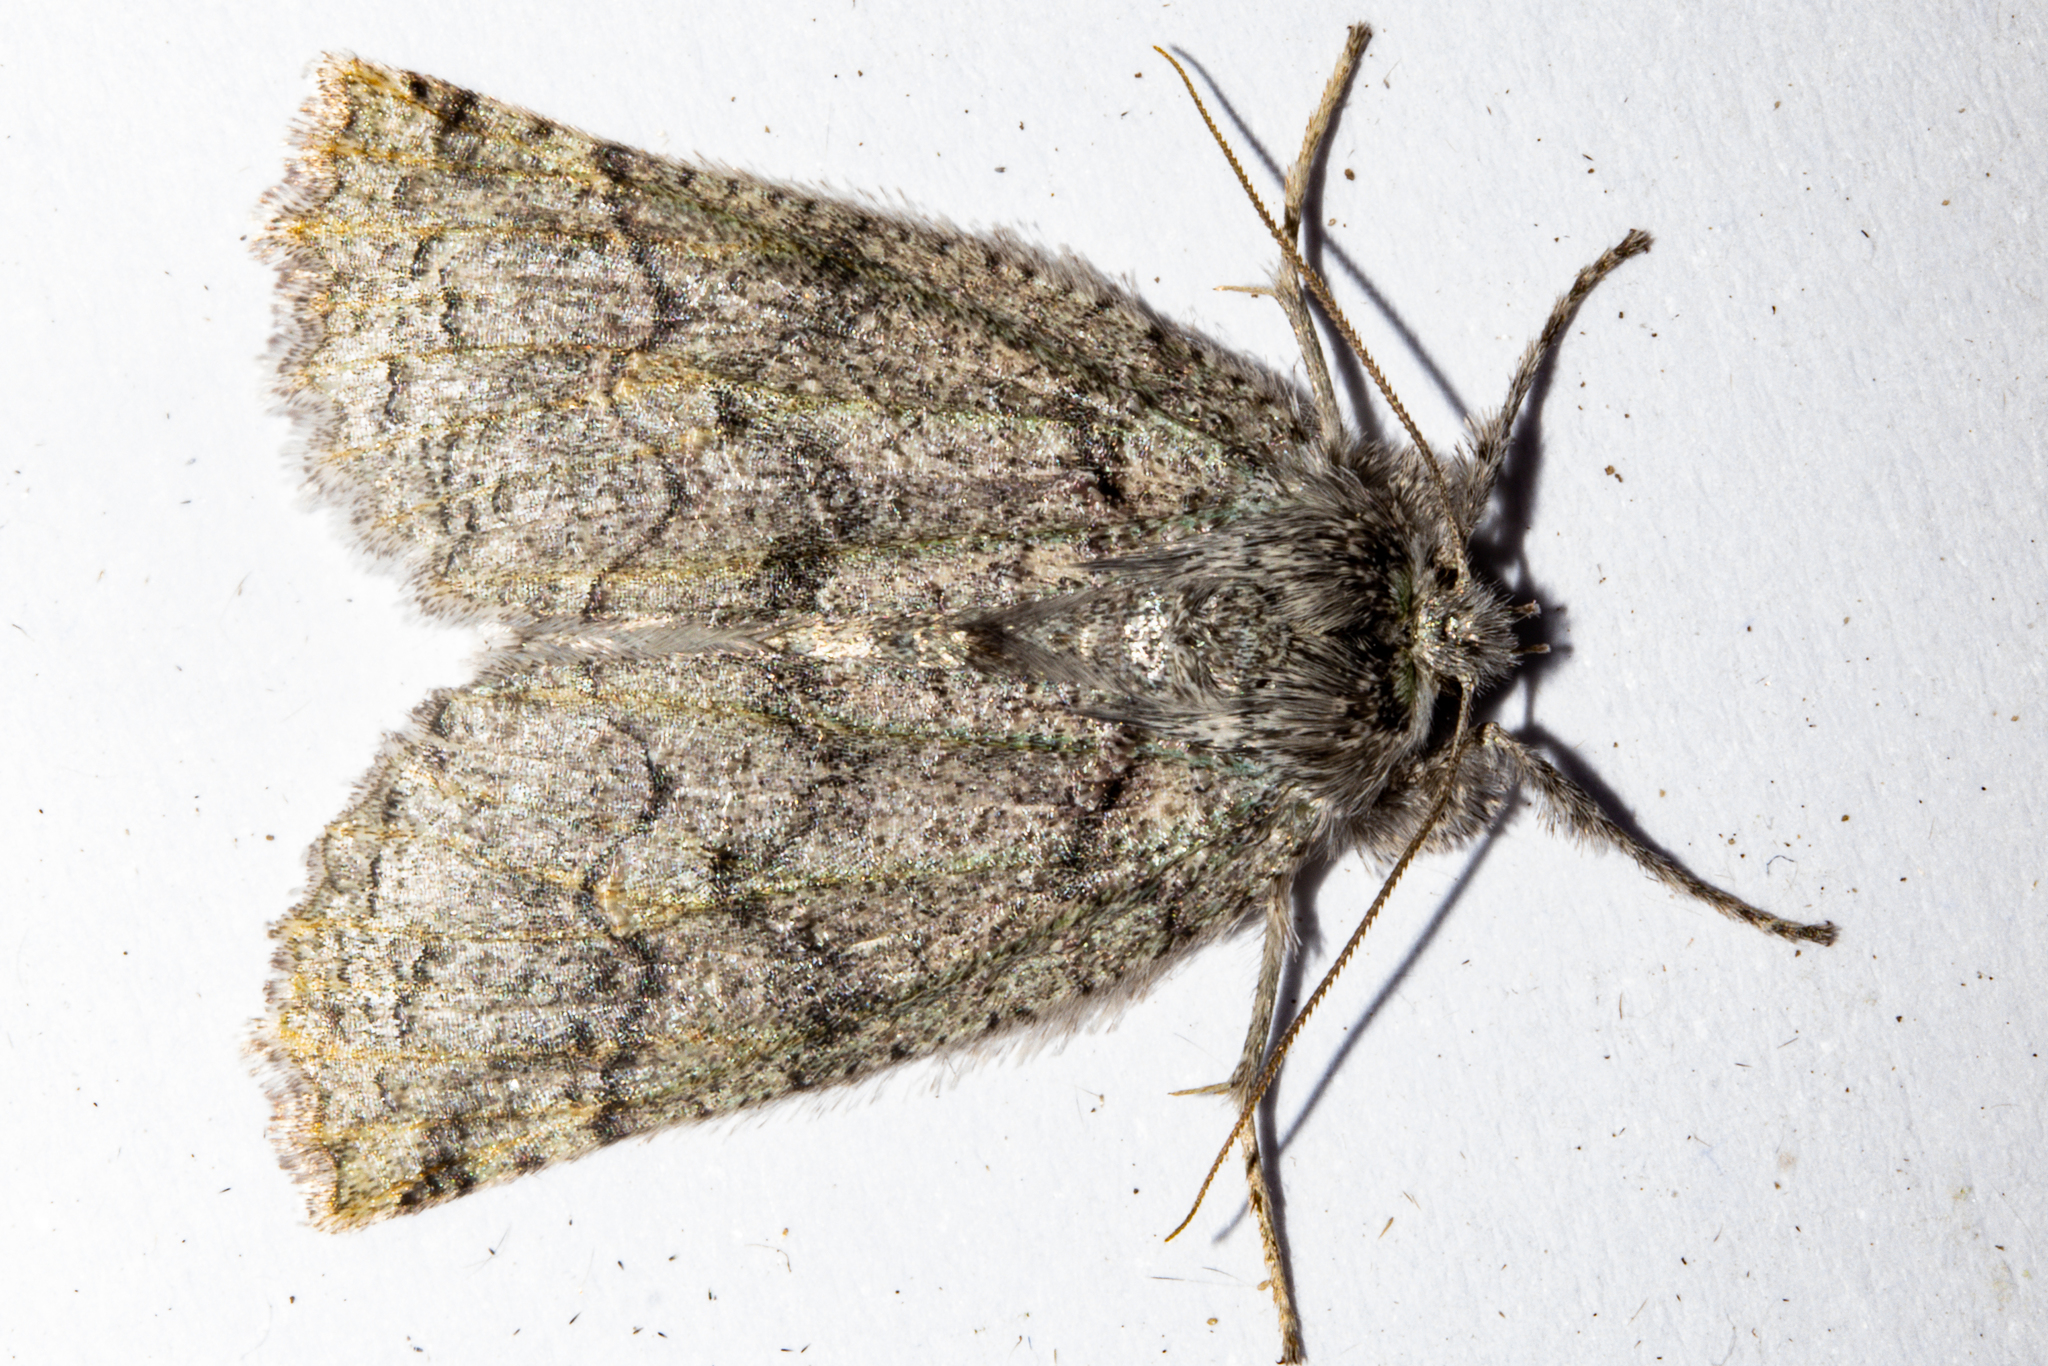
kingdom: Animalia
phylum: Arthropoda
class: Insecta
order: Lepidoptera
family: Geometridae
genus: Declana
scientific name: Declana floccosa
